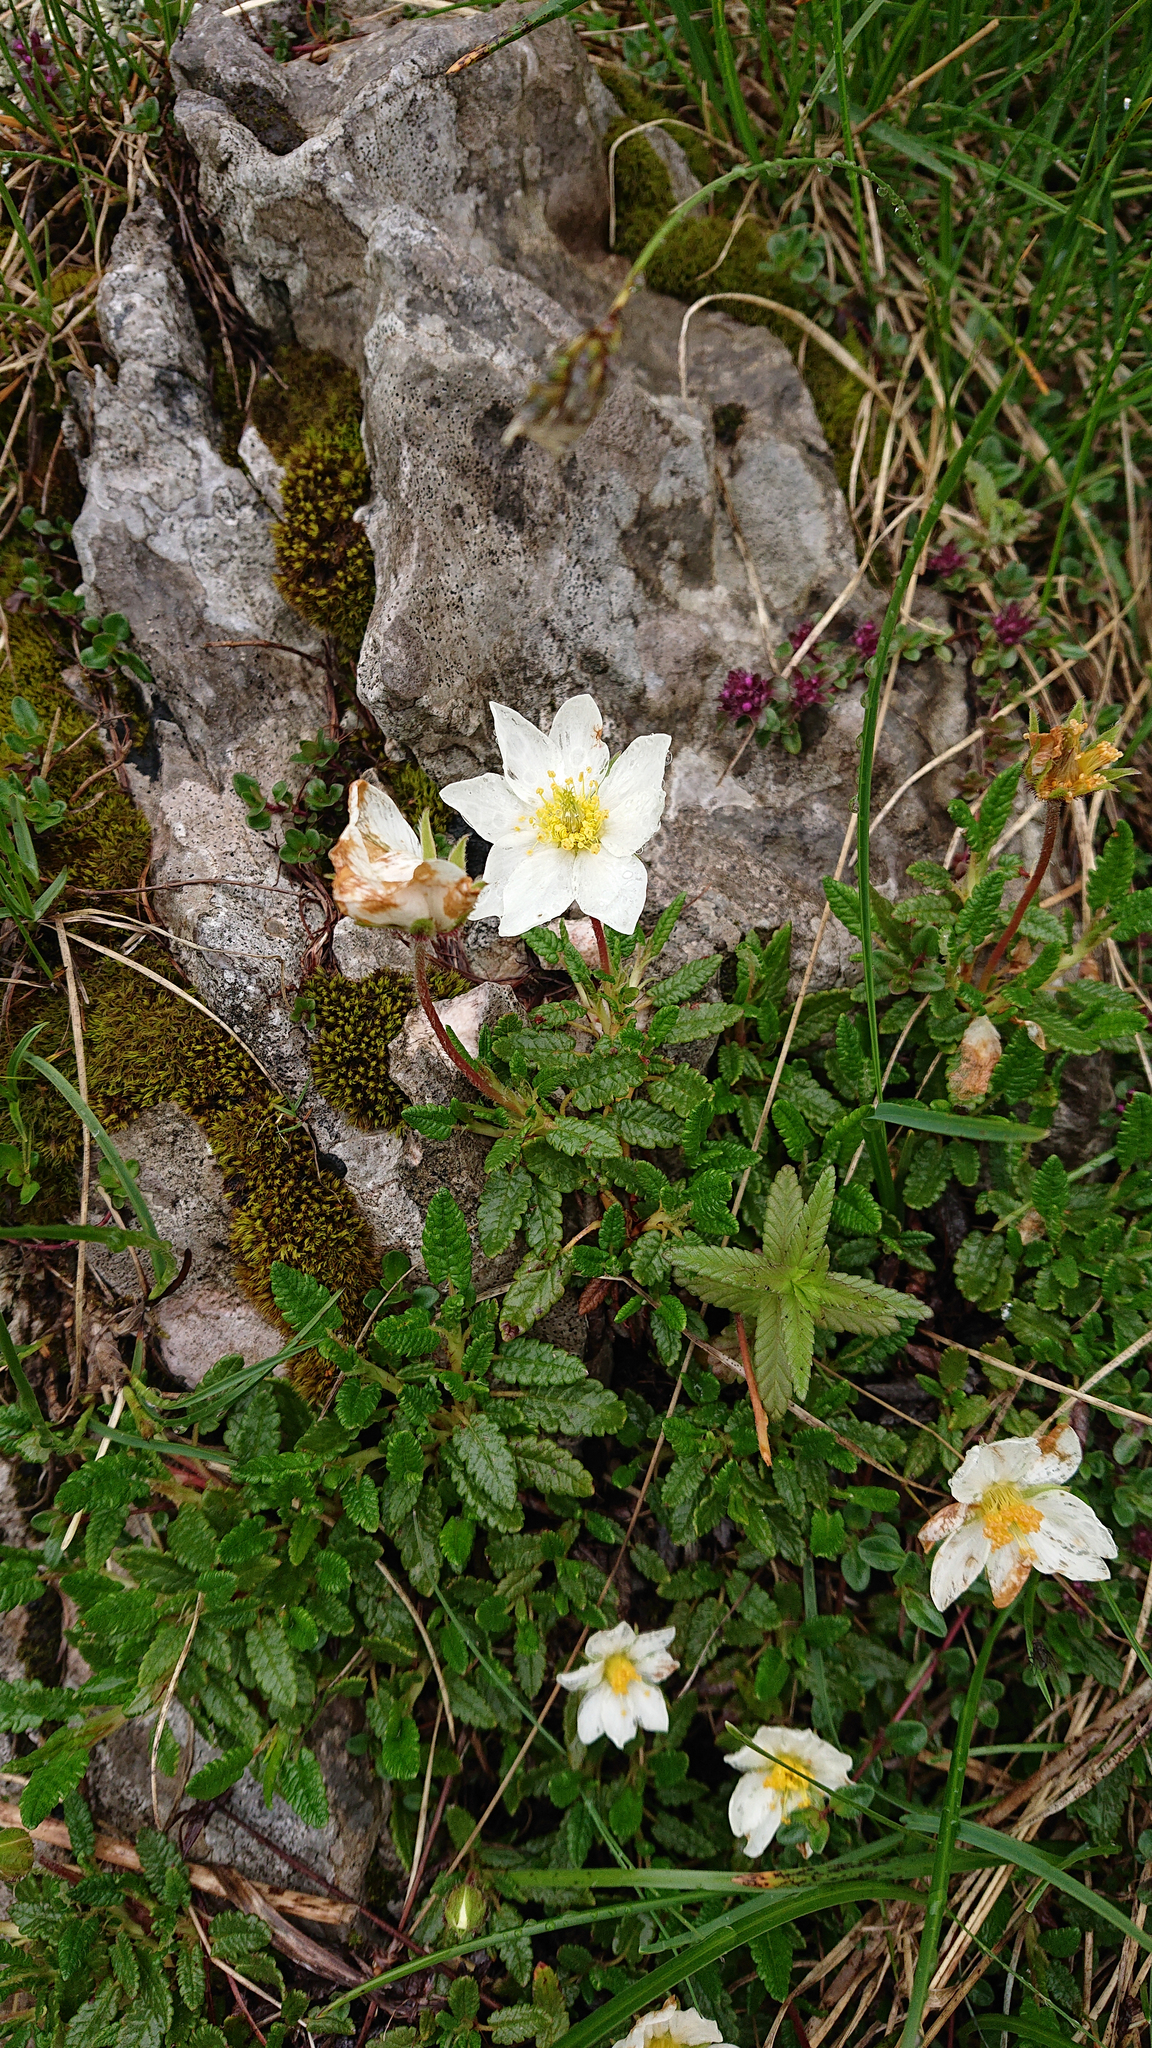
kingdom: Plantae
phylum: Tracheophyta
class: Magnoliopsida
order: Rosales
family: Rosaceae
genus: Dryas
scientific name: Dryas octopetala
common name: Eight-petal mountain-avens
